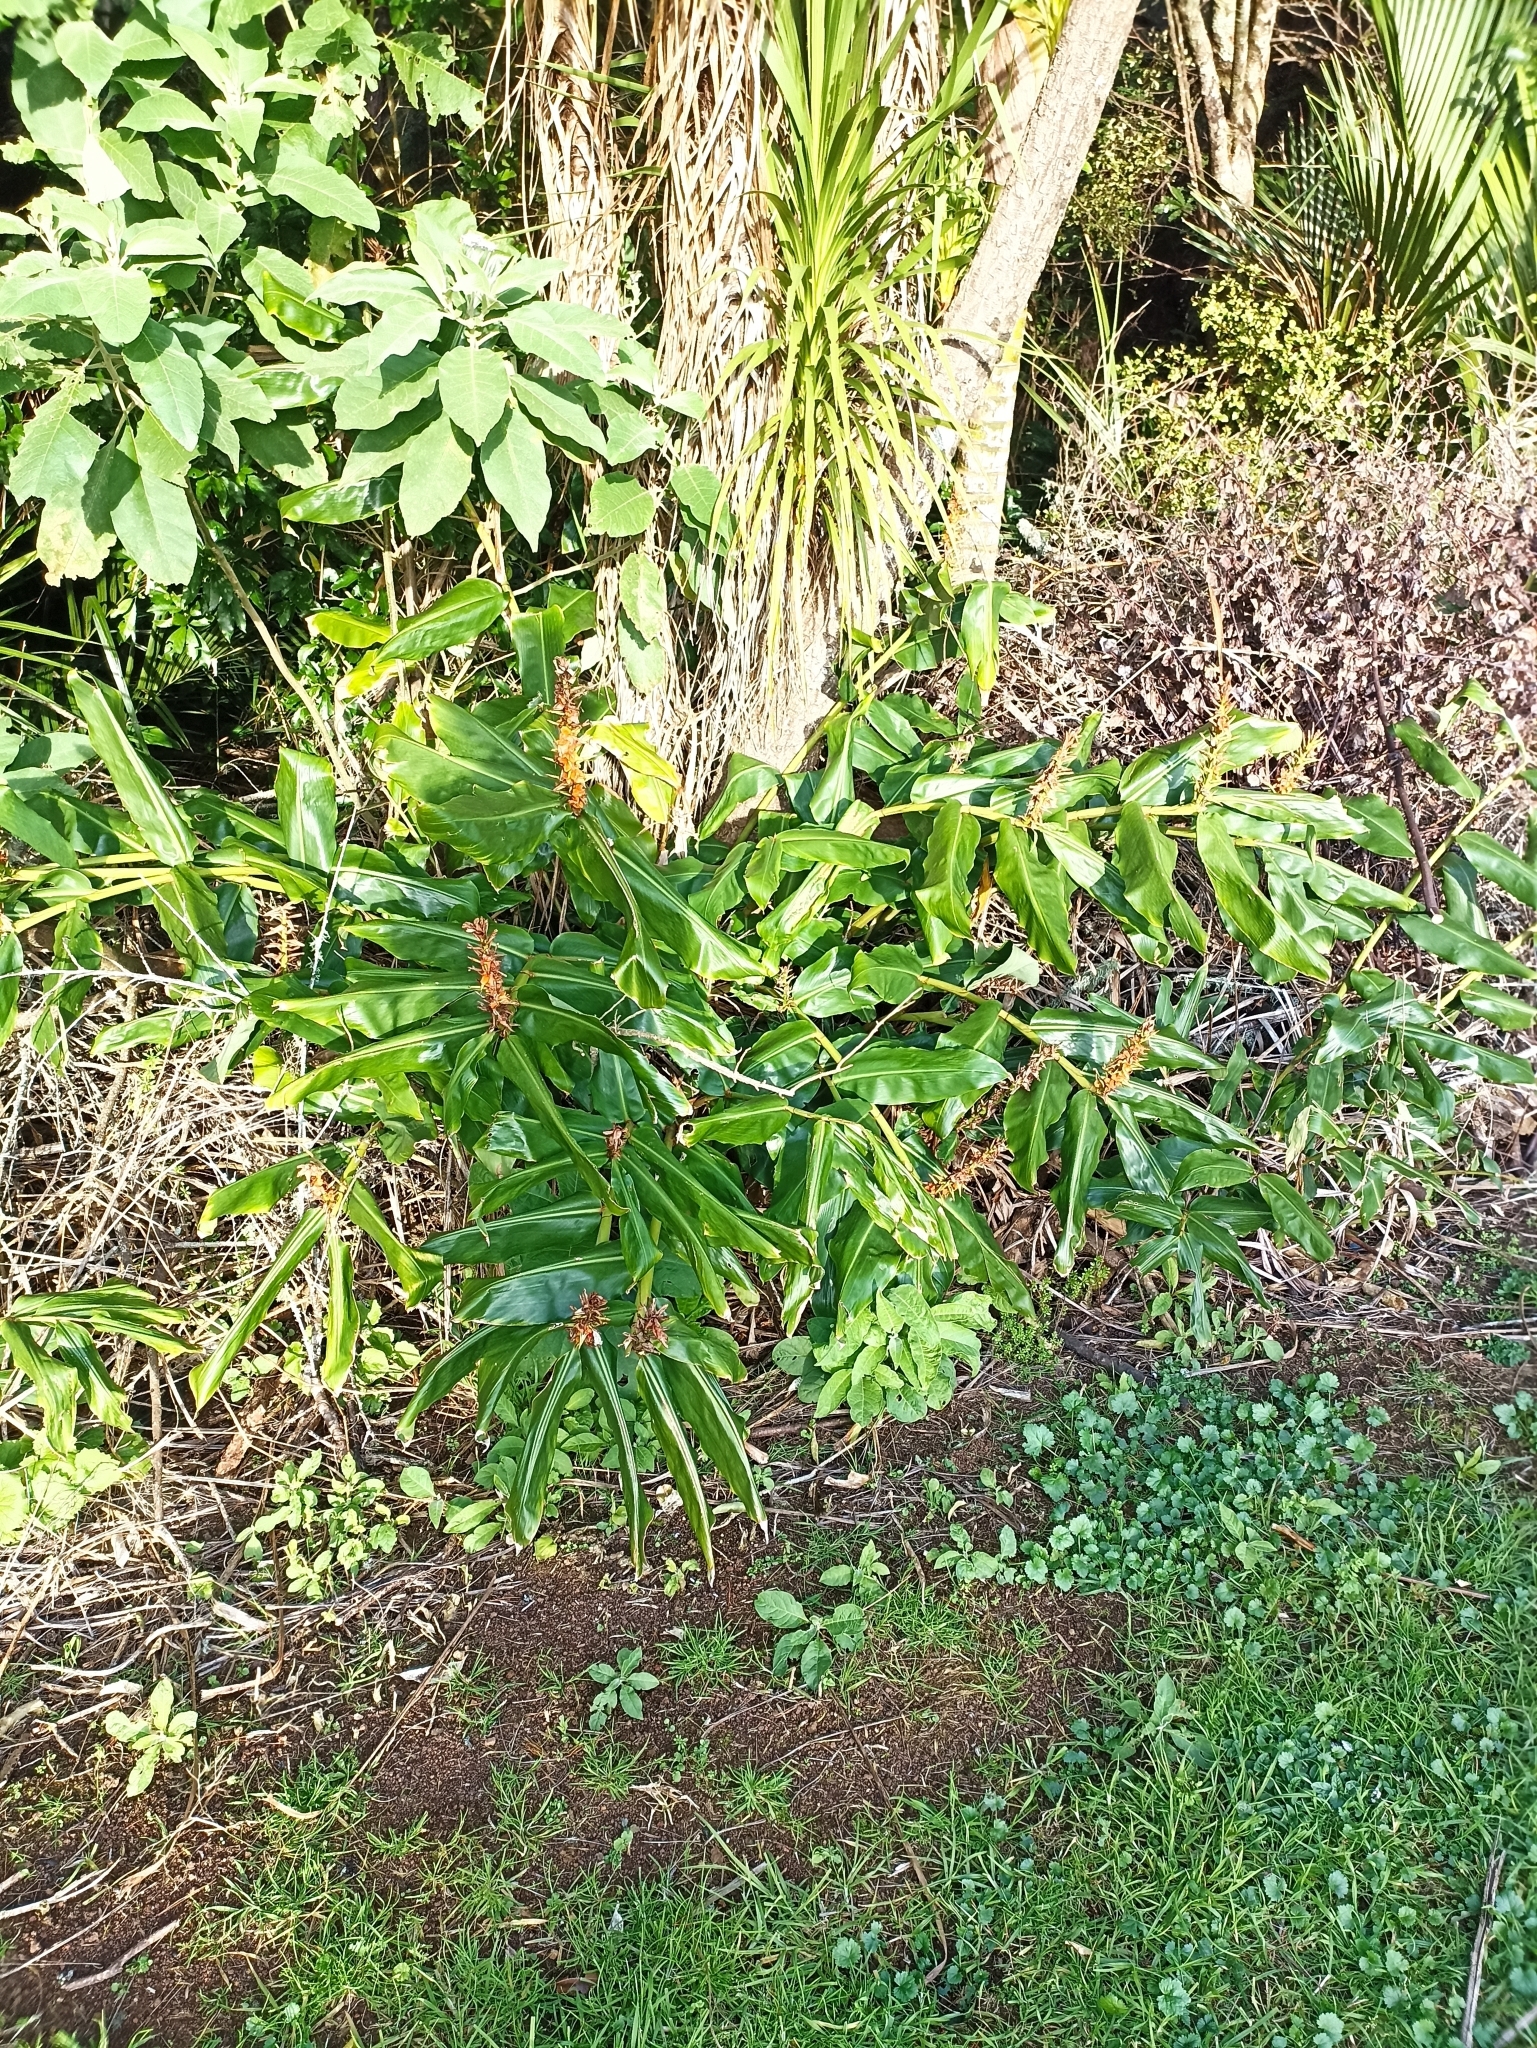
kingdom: Plantae
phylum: Tracheophyta
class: Liliopsida
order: Zingiberales
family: Zingiberaceae
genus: Hedychium
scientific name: Hedychium gardnerianum
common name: Himalayan ginger
